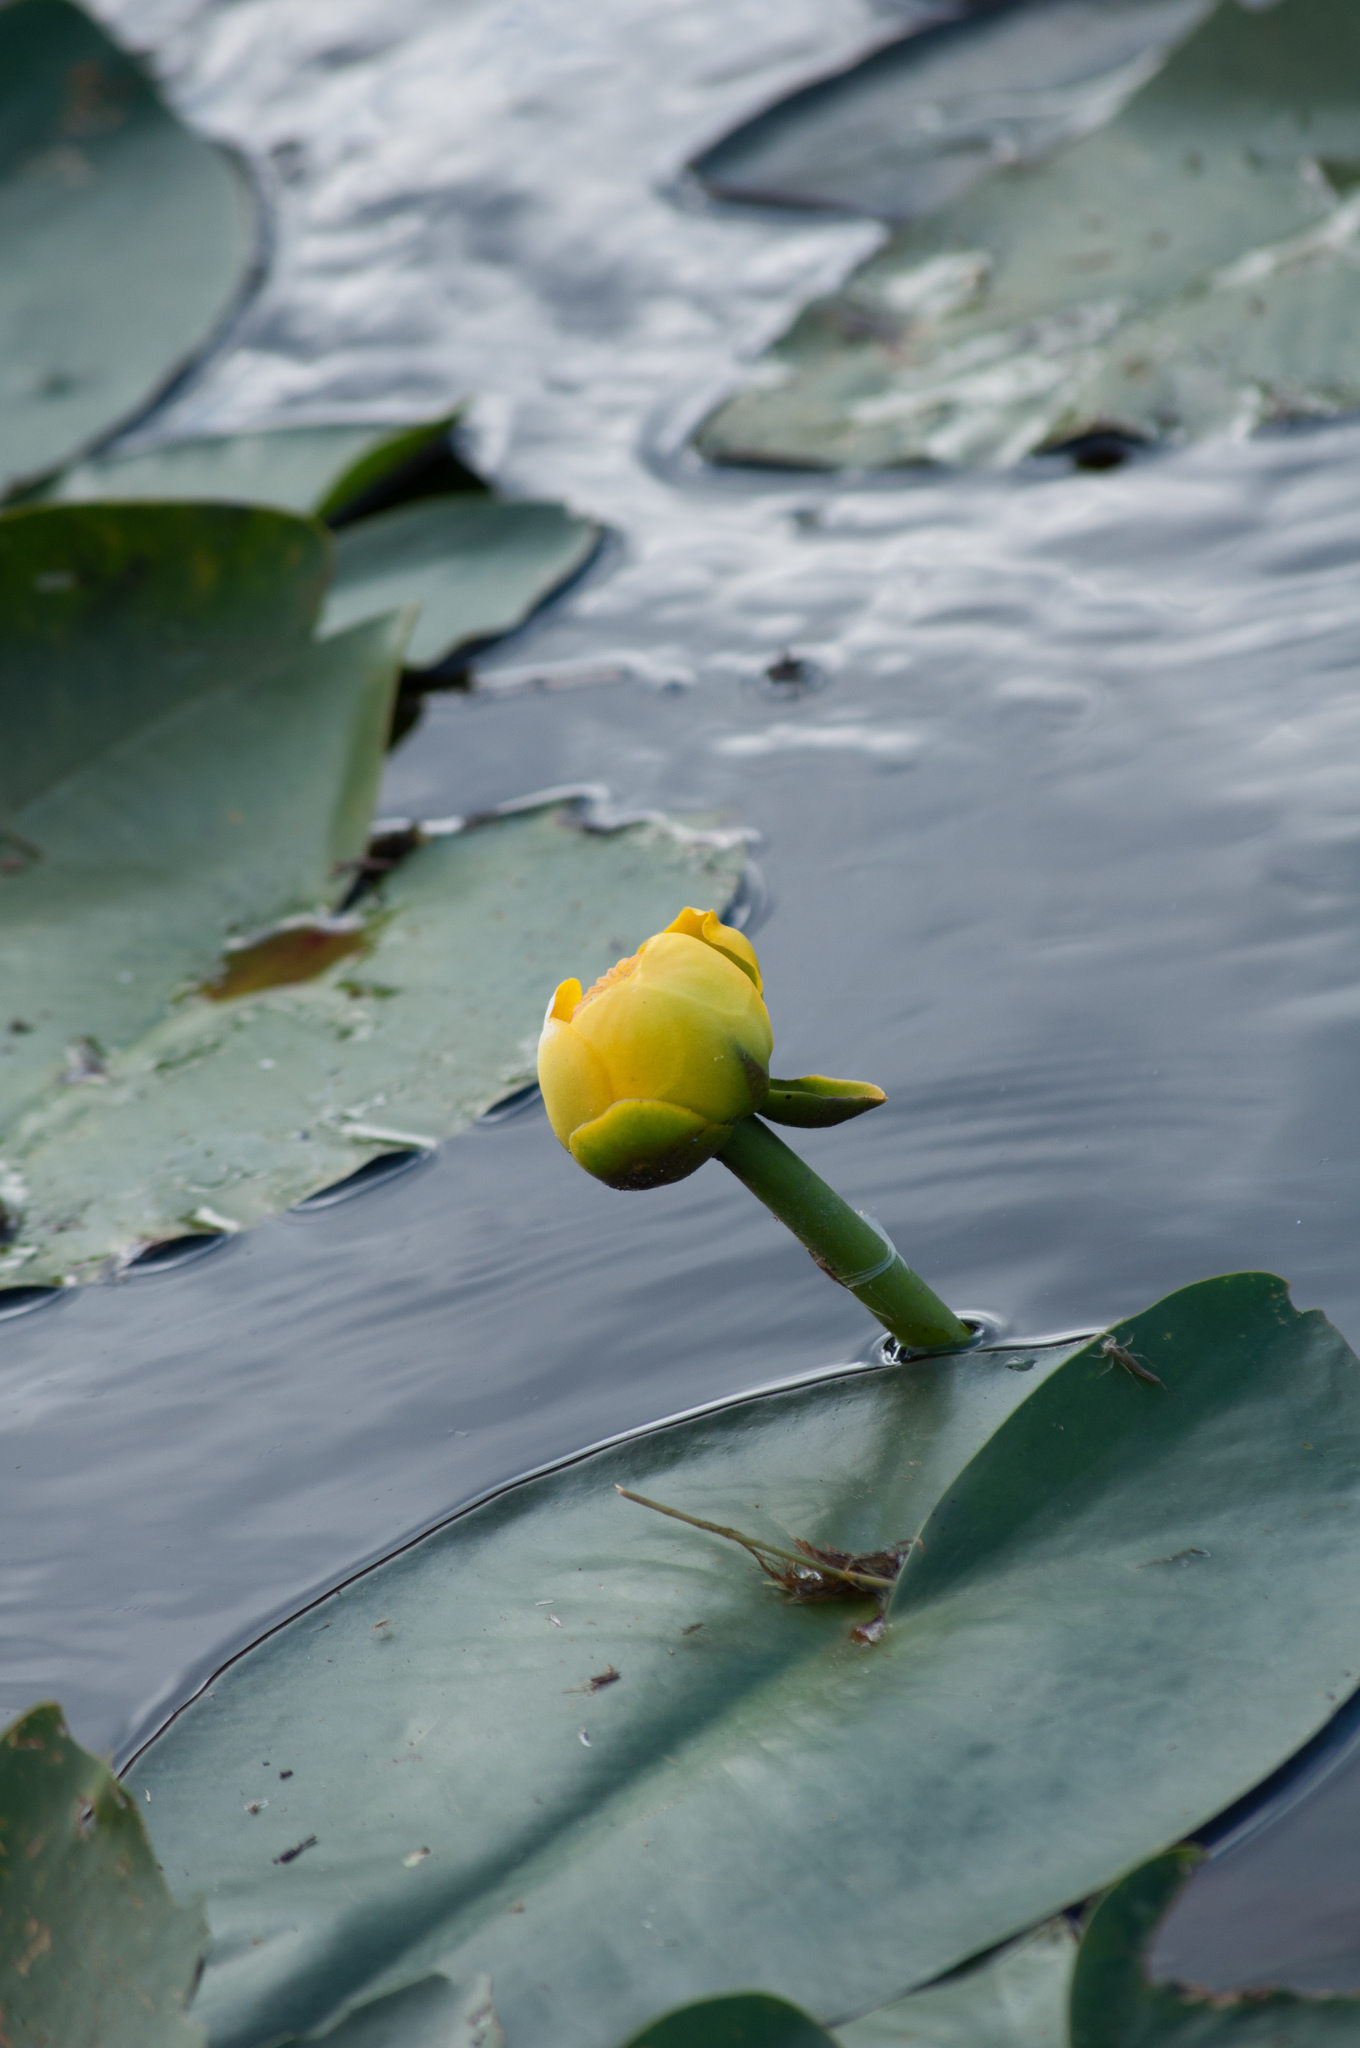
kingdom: Plantae
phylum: Tracheophyta
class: Magnoliopsida
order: Nymphaeales
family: Nymphaeaceae
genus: Nuphar
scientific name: Nuphar advena
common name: Spatter-dock
